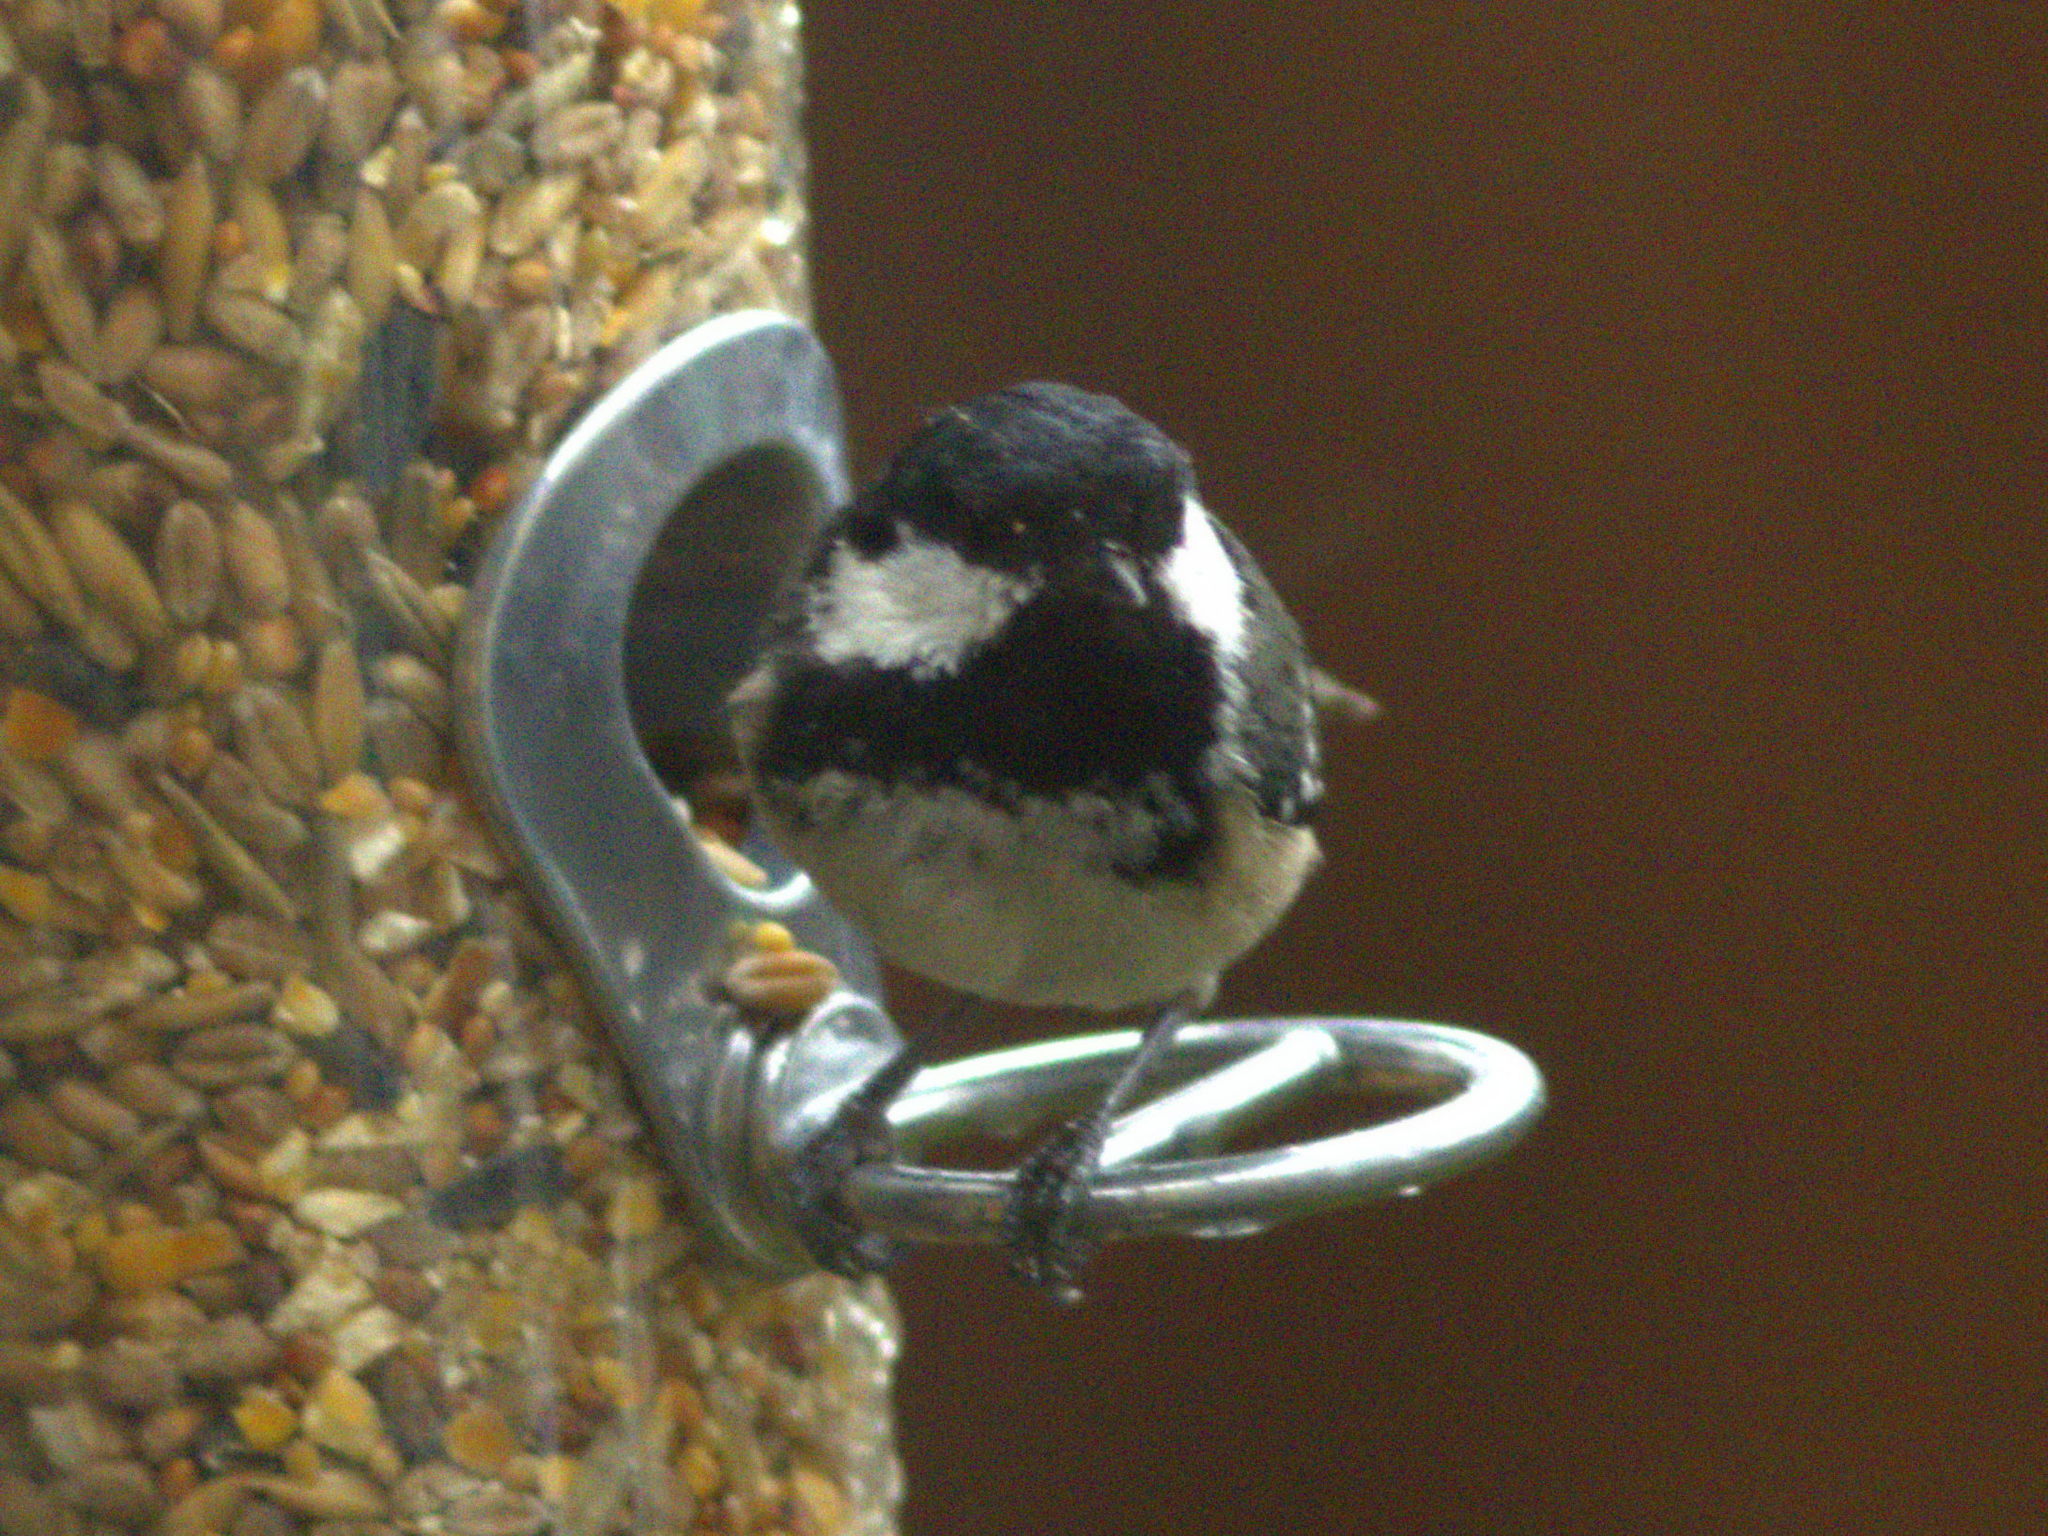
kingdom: Animalia
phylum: Chordata
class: Aves
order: Passeriformes
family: Paridae
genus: Periparus
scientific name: Periparus ater
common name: Coal tit
